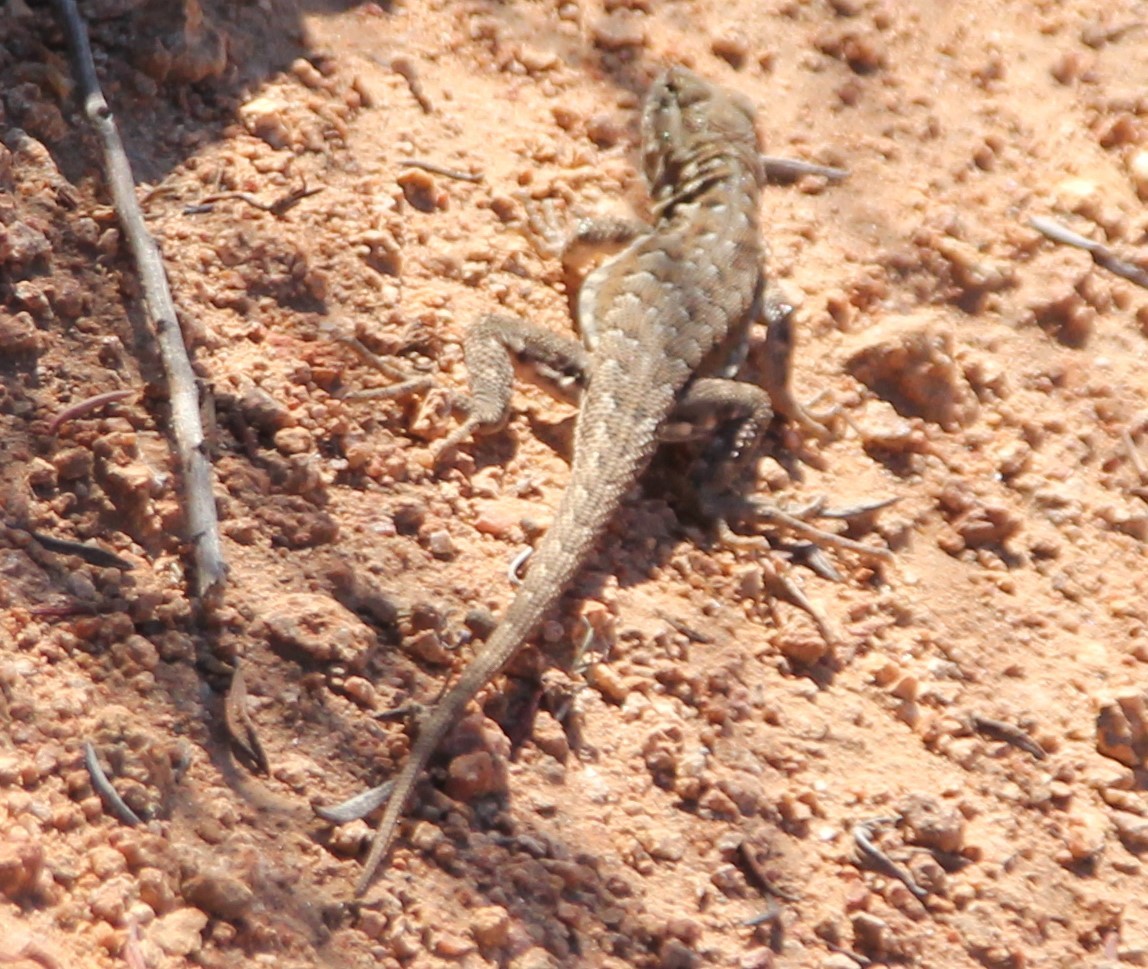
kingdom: Animalia
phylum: Chordata
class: Squamata
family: Phrynosomatidae
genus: Uta
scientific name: Uta stansburiana
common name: Side-blotched lizard
